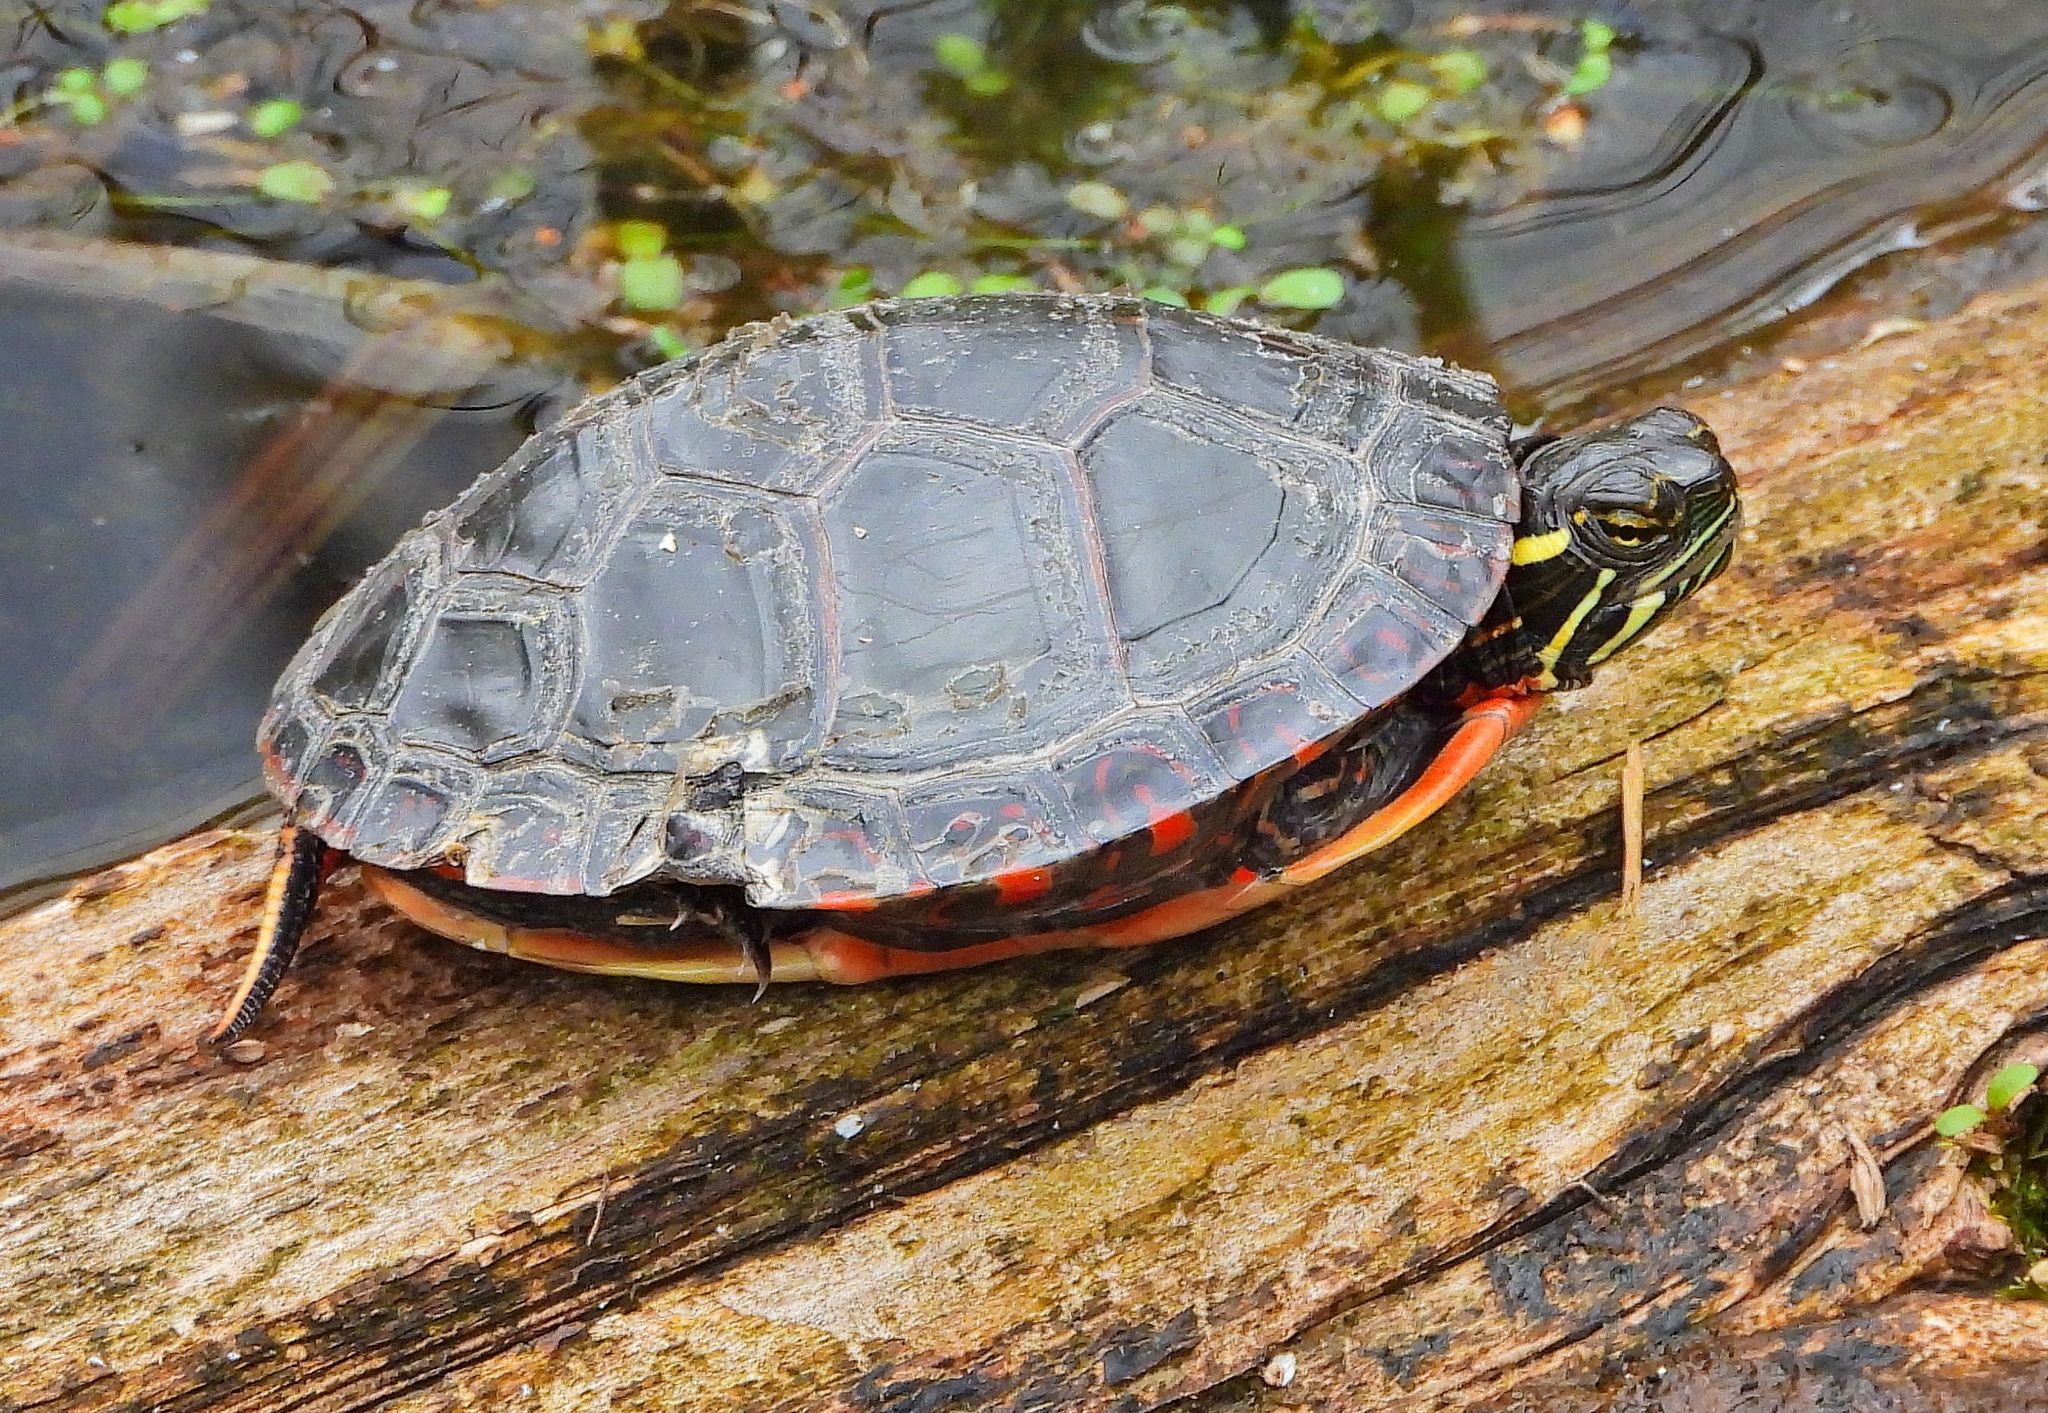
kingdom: Animalia
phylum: Chordata
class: Testudines
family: Emydidae
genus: Chrysemys
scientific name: Chrysemys picta
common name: Painted turtle
